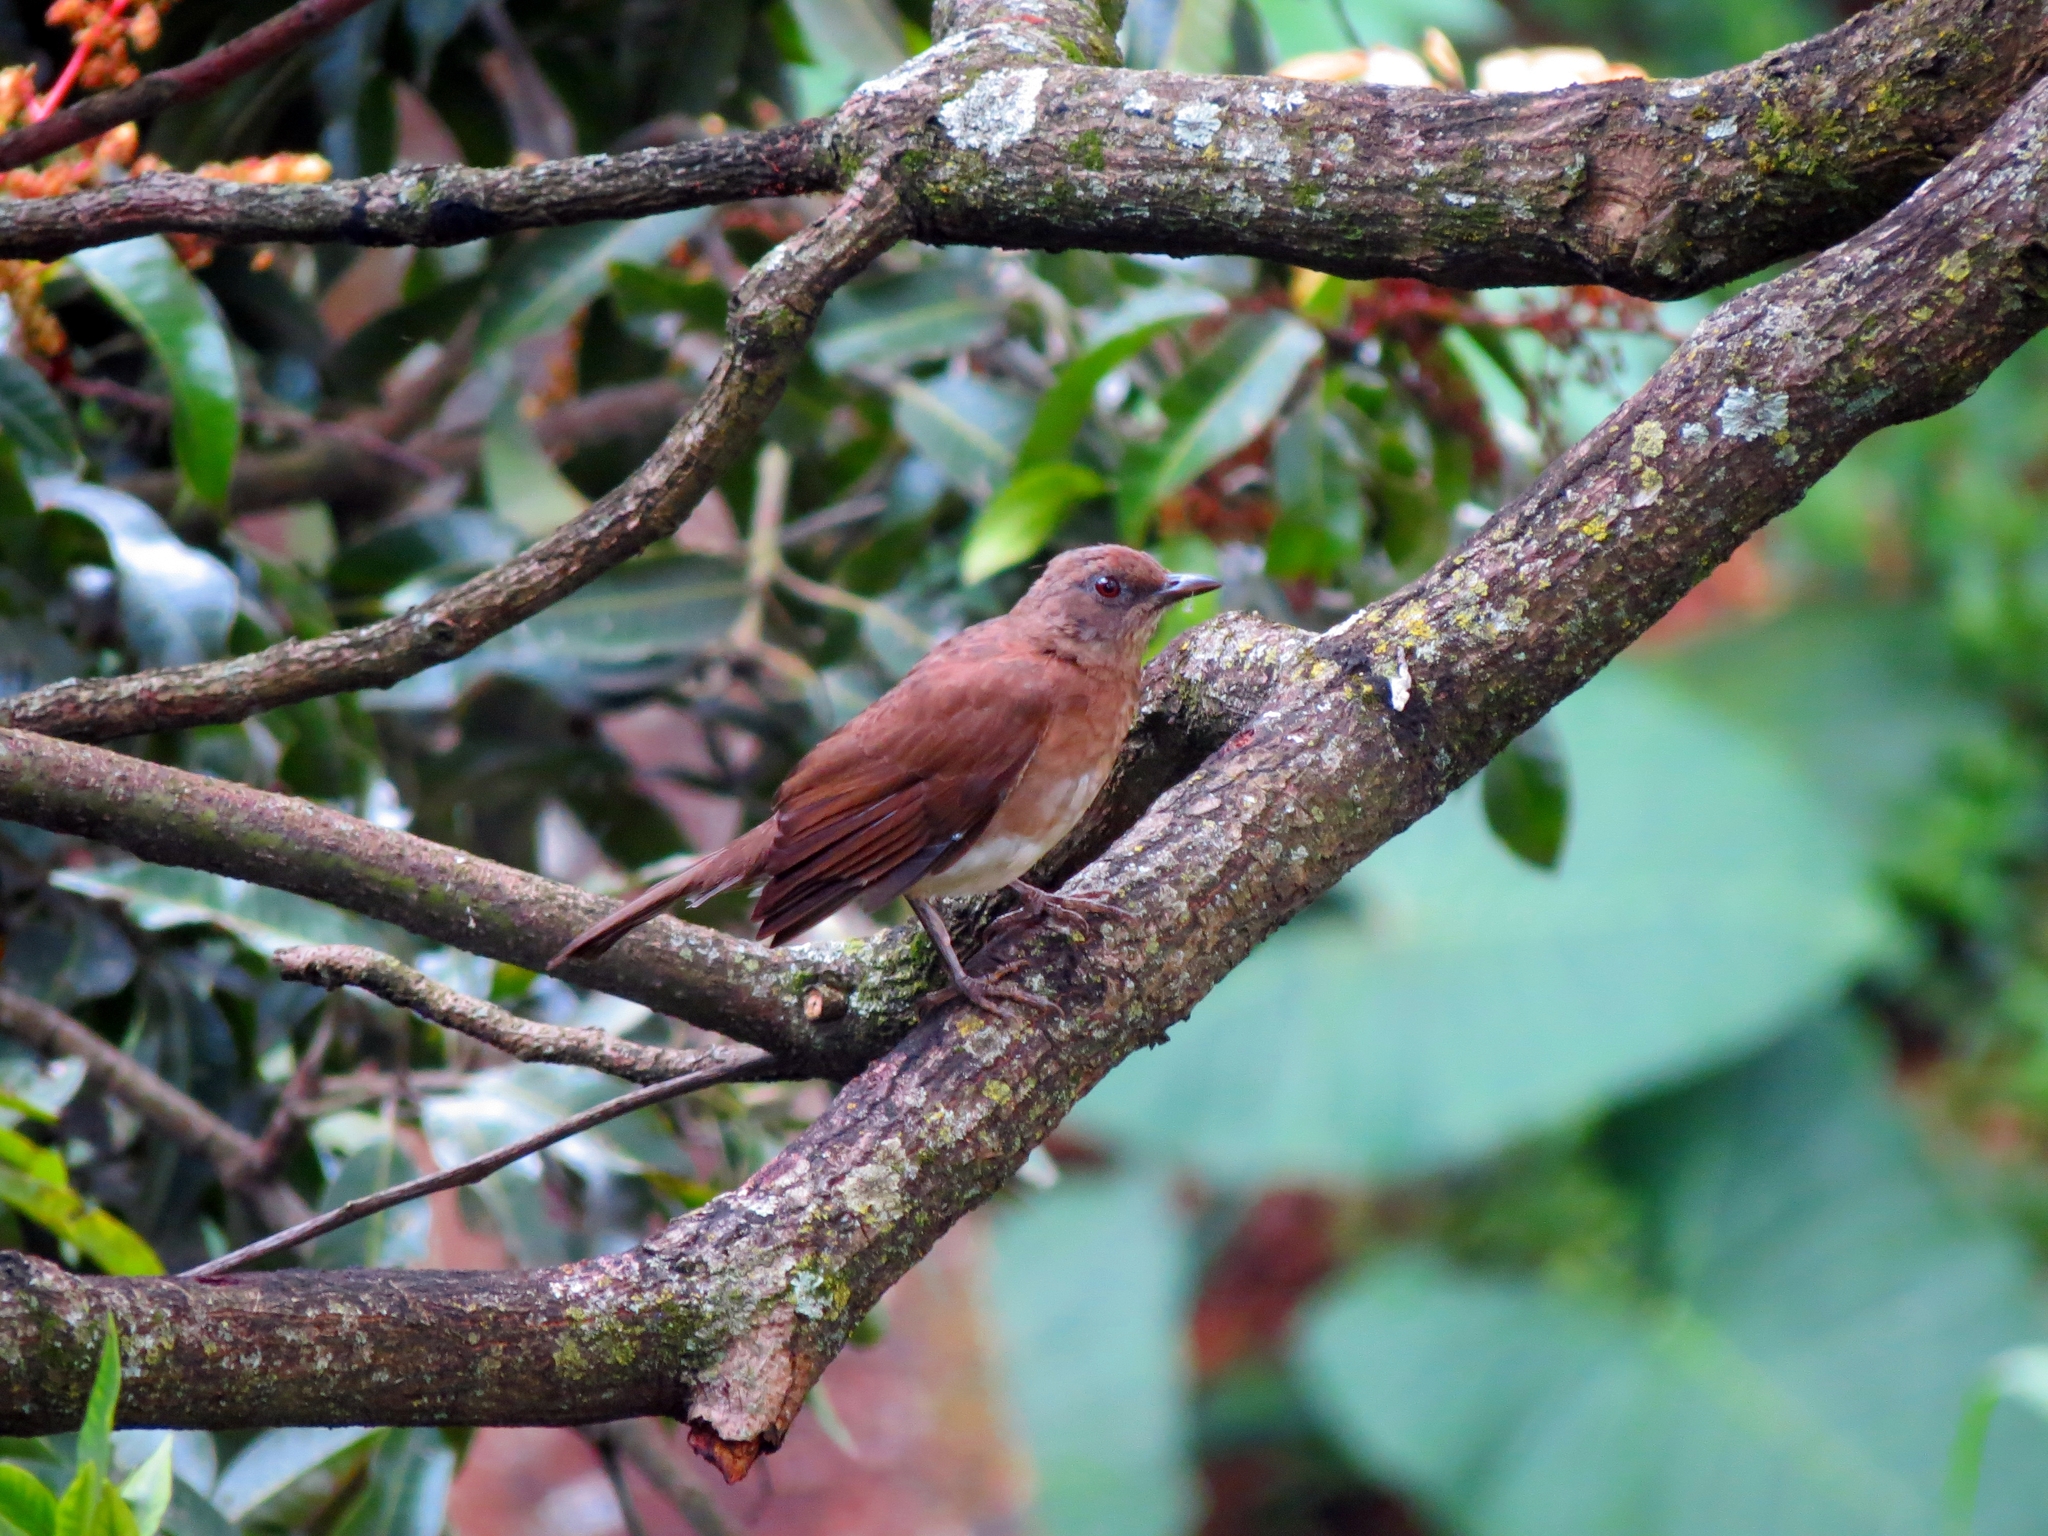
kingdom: Animalia
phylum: Chordata
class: Aves
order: Passeriformes
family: Turdidae
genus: Turdus
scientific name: Turdus ignobilis
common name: Black-billed thrush
